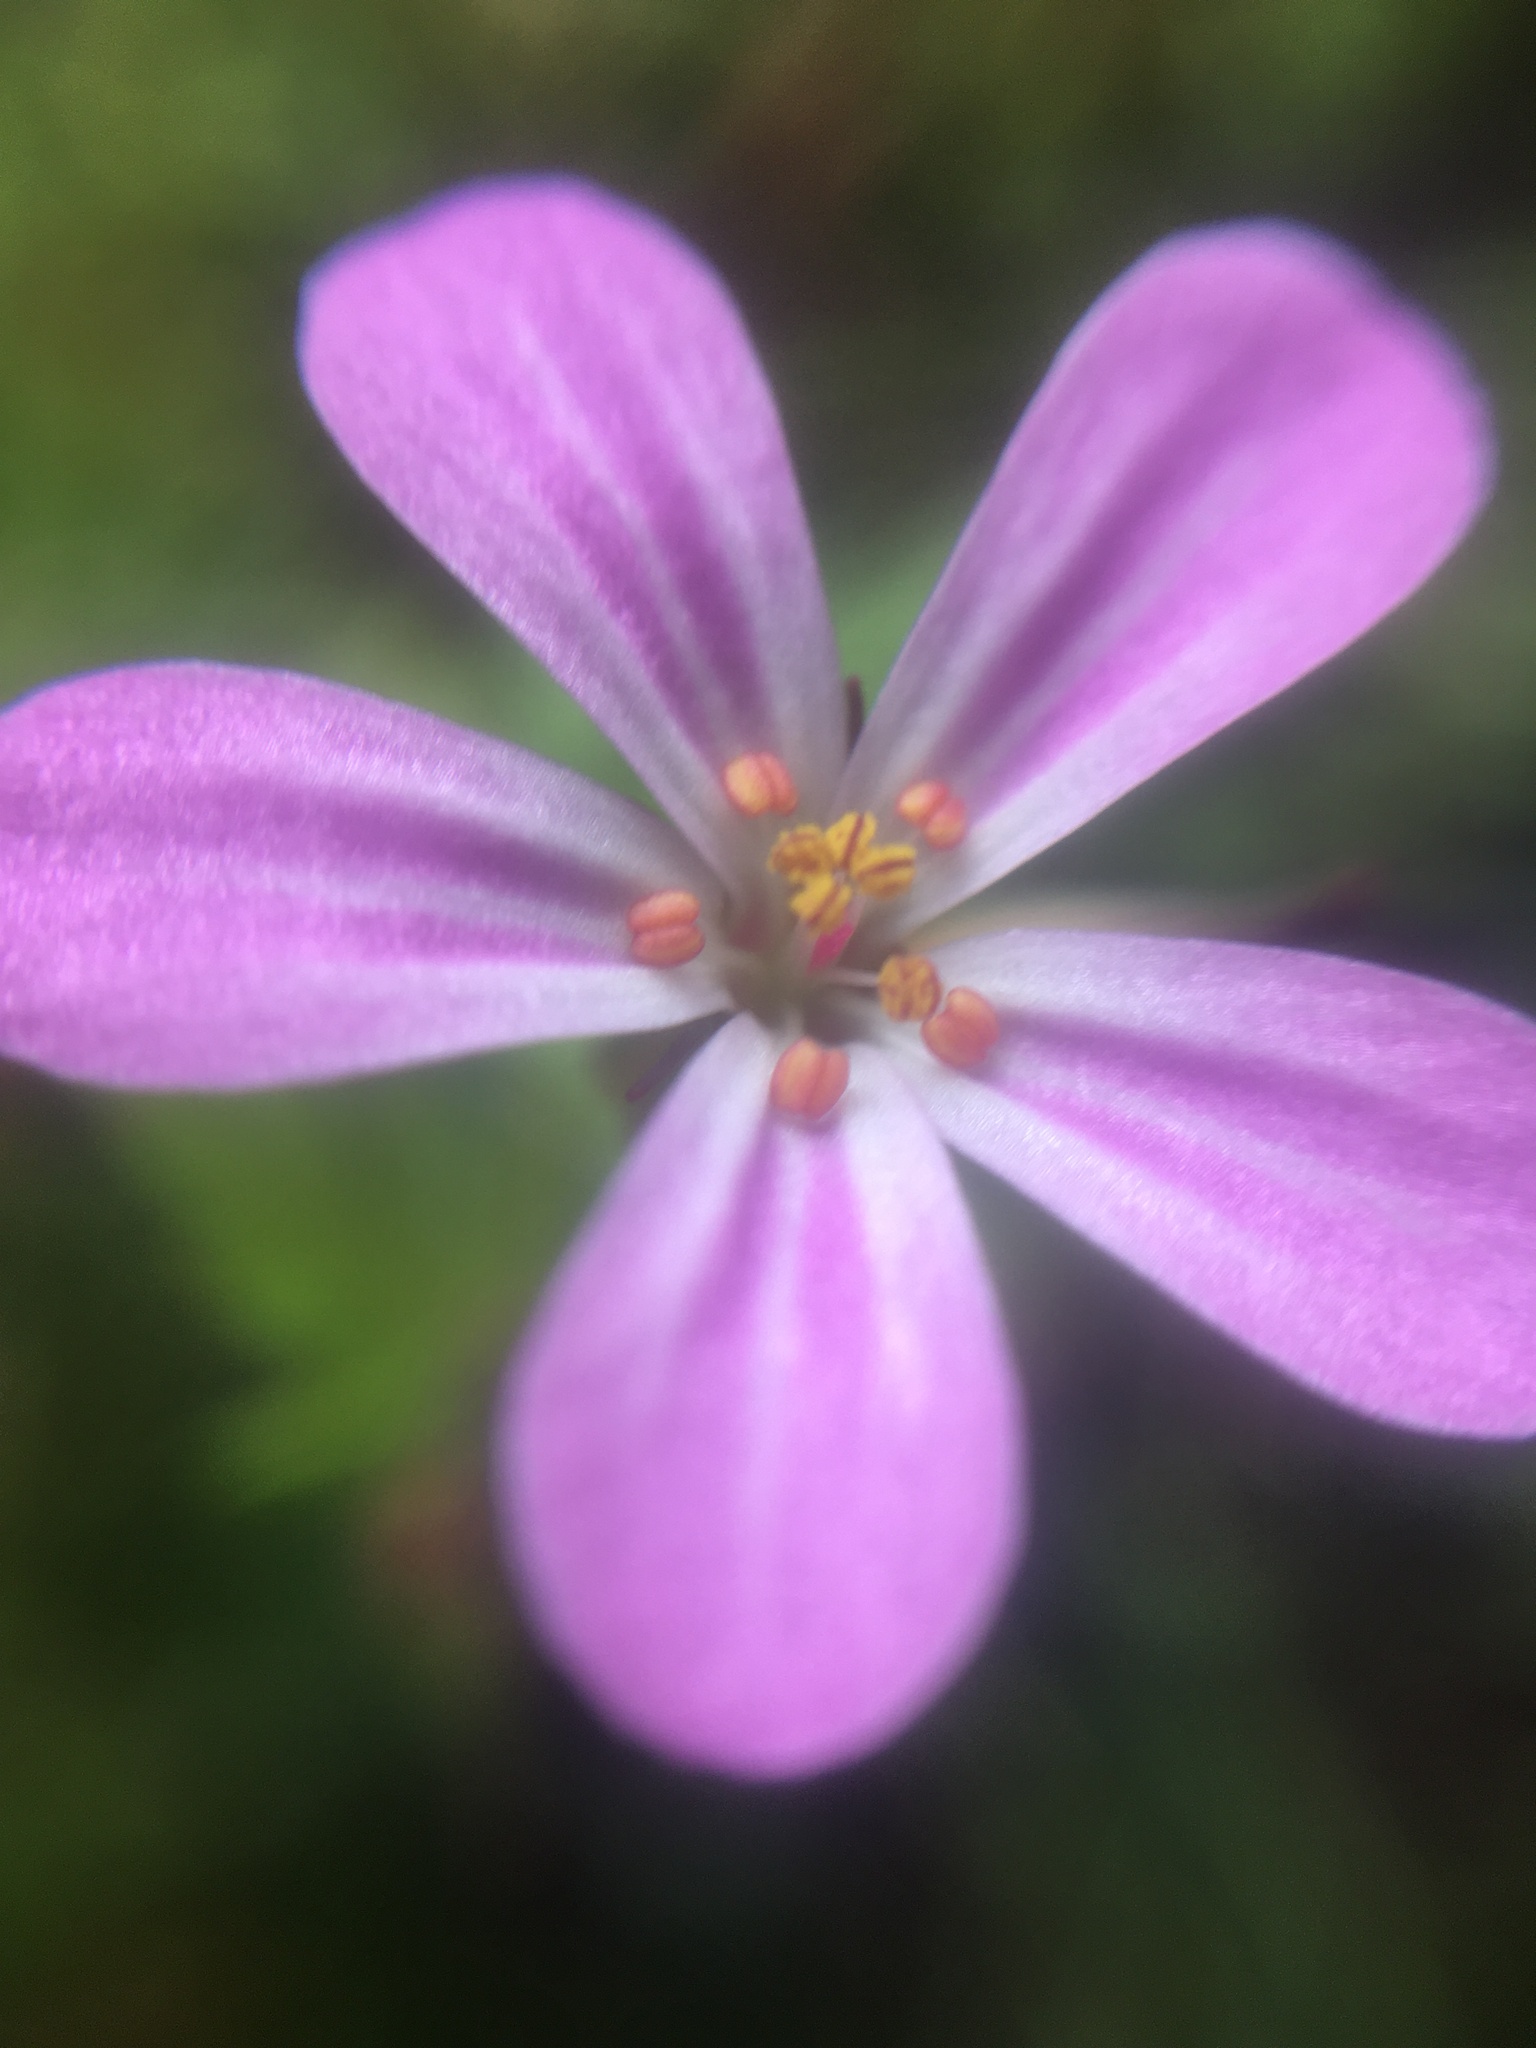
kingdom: Plantae
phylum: Tracheophyta
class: Magnoliopsida
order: Geraniales
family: Geraniaceae
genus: Geranium
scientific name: Geranium robertianum
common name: Herb-robert
